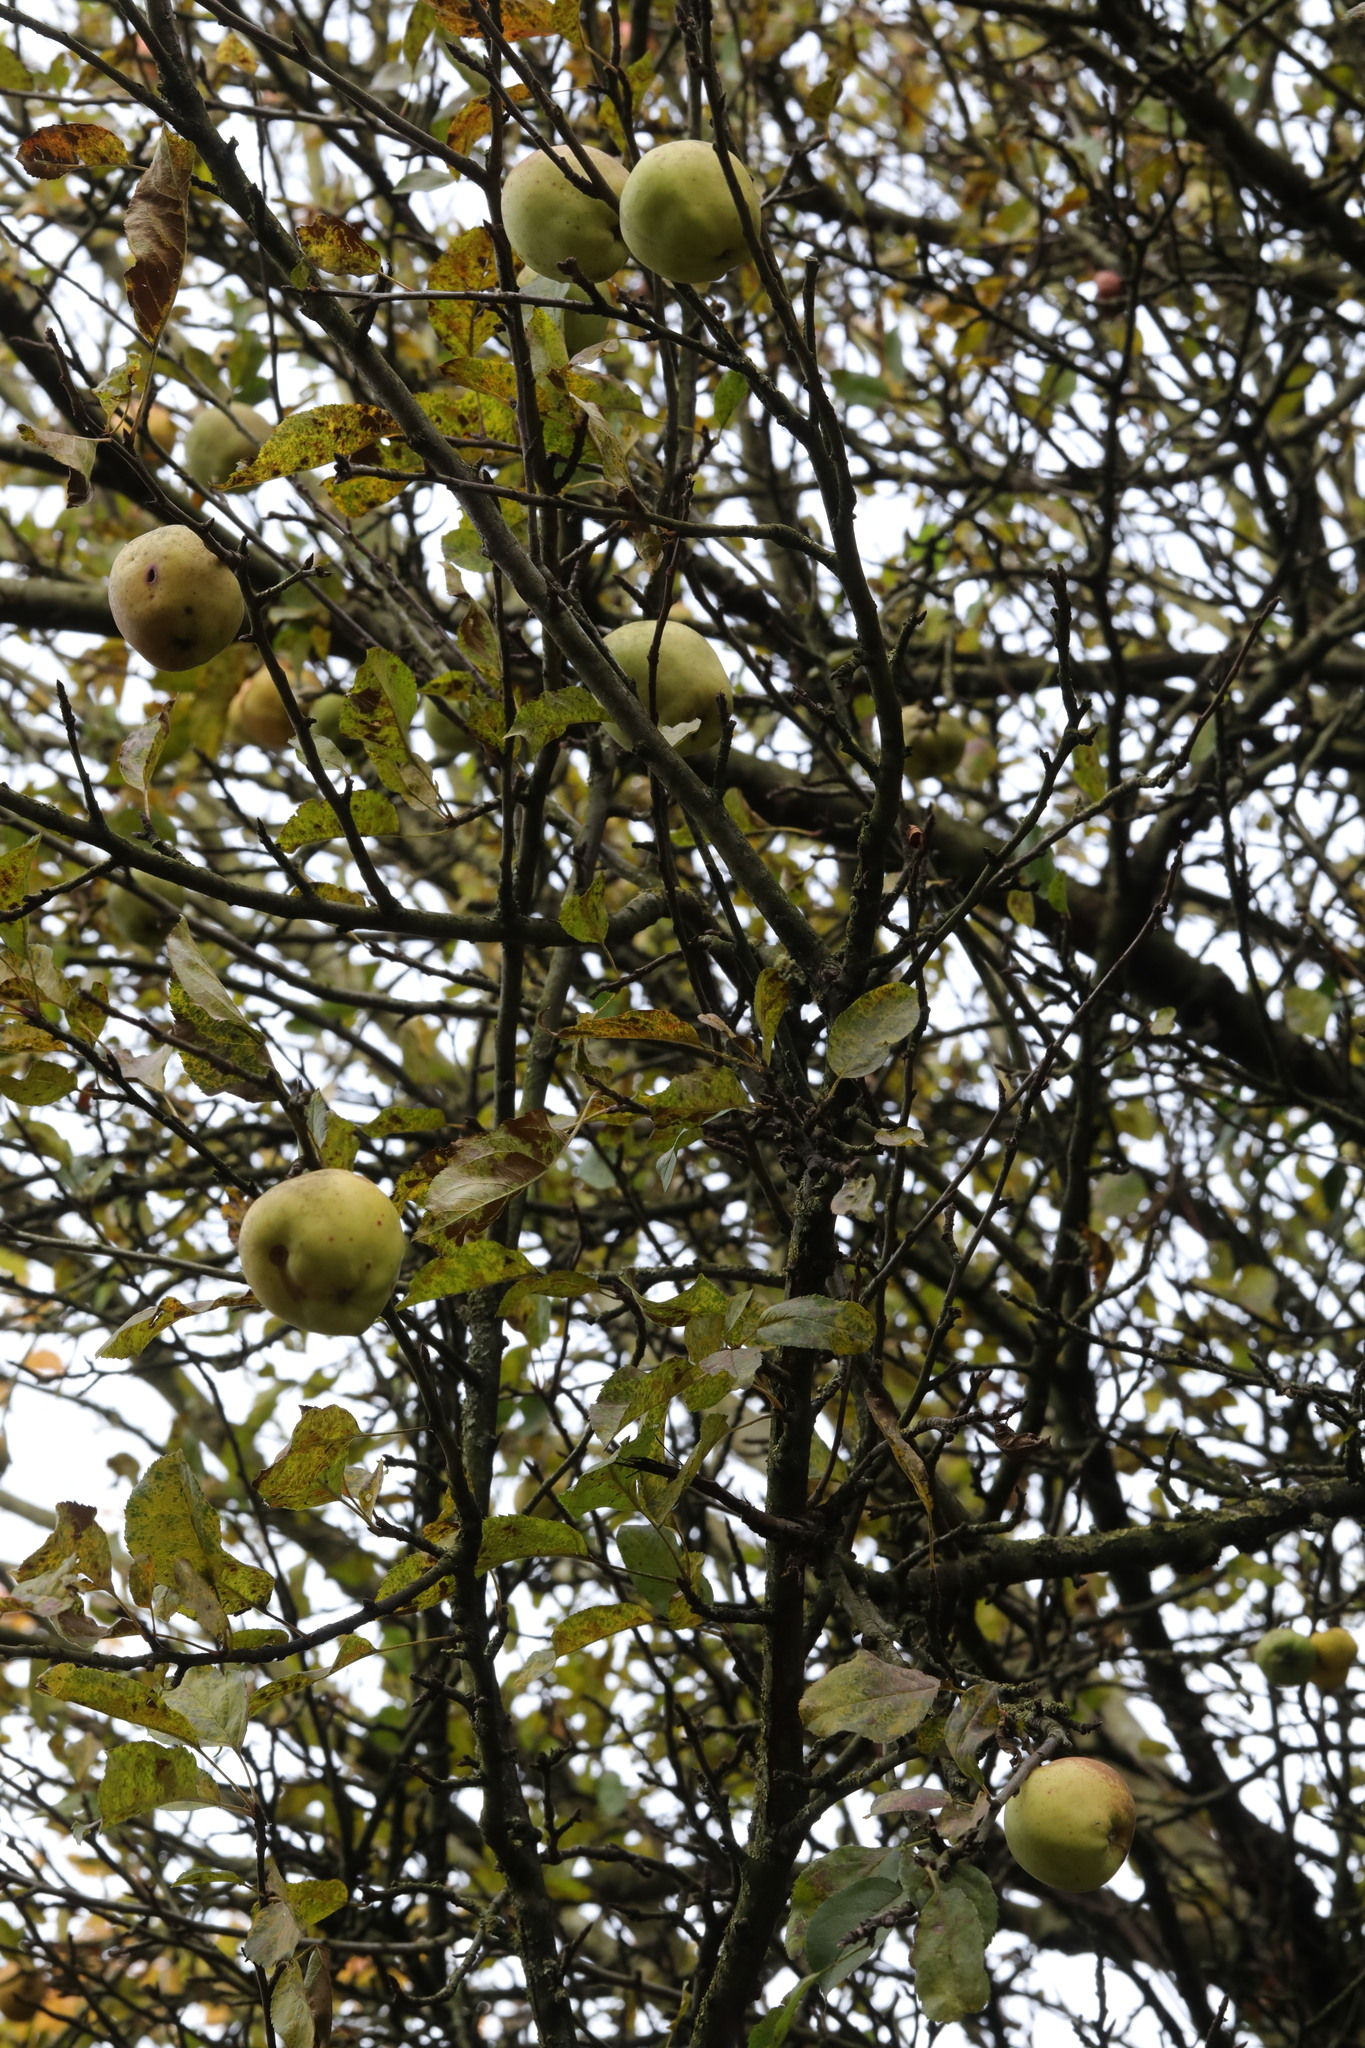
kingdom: Plantae
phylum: Tracheophyta
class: Magnoliopsida
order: Rosales
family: Rosaceae
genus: Malus
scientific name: Malus domestica
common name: Apple
